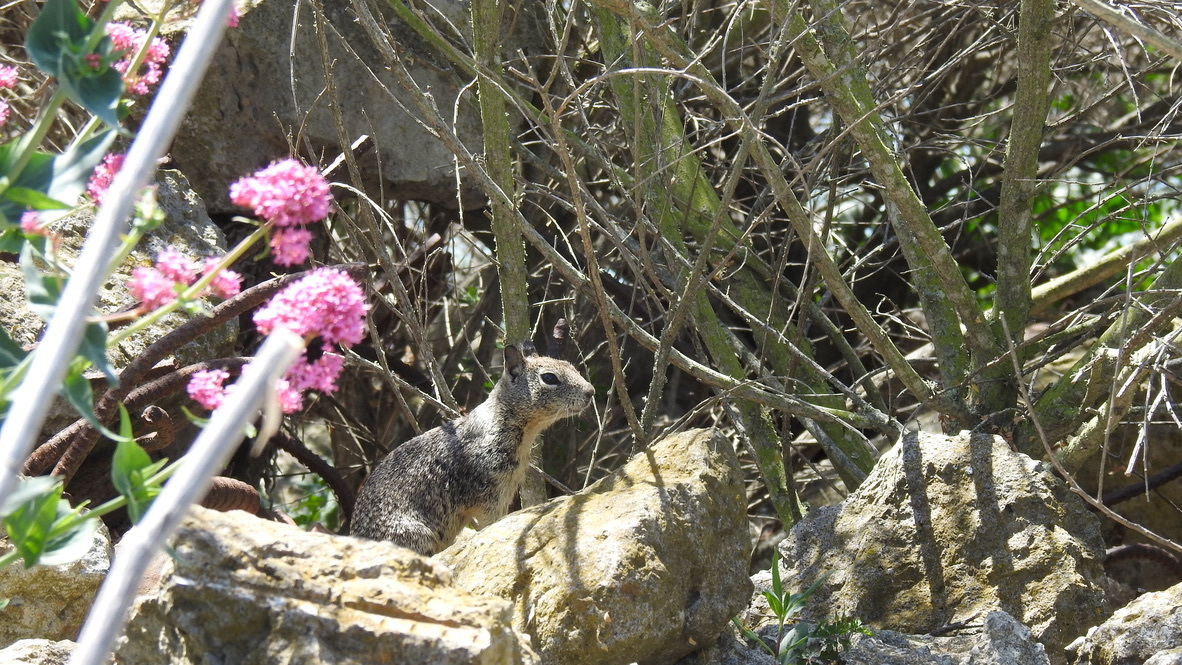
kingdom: Animalia
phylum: Chordata
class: Mammalia
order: Rodentia
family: Sciuridae
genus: Otospermophilus
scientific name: Otospermophilus beecheyi
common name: California ground squirrel
